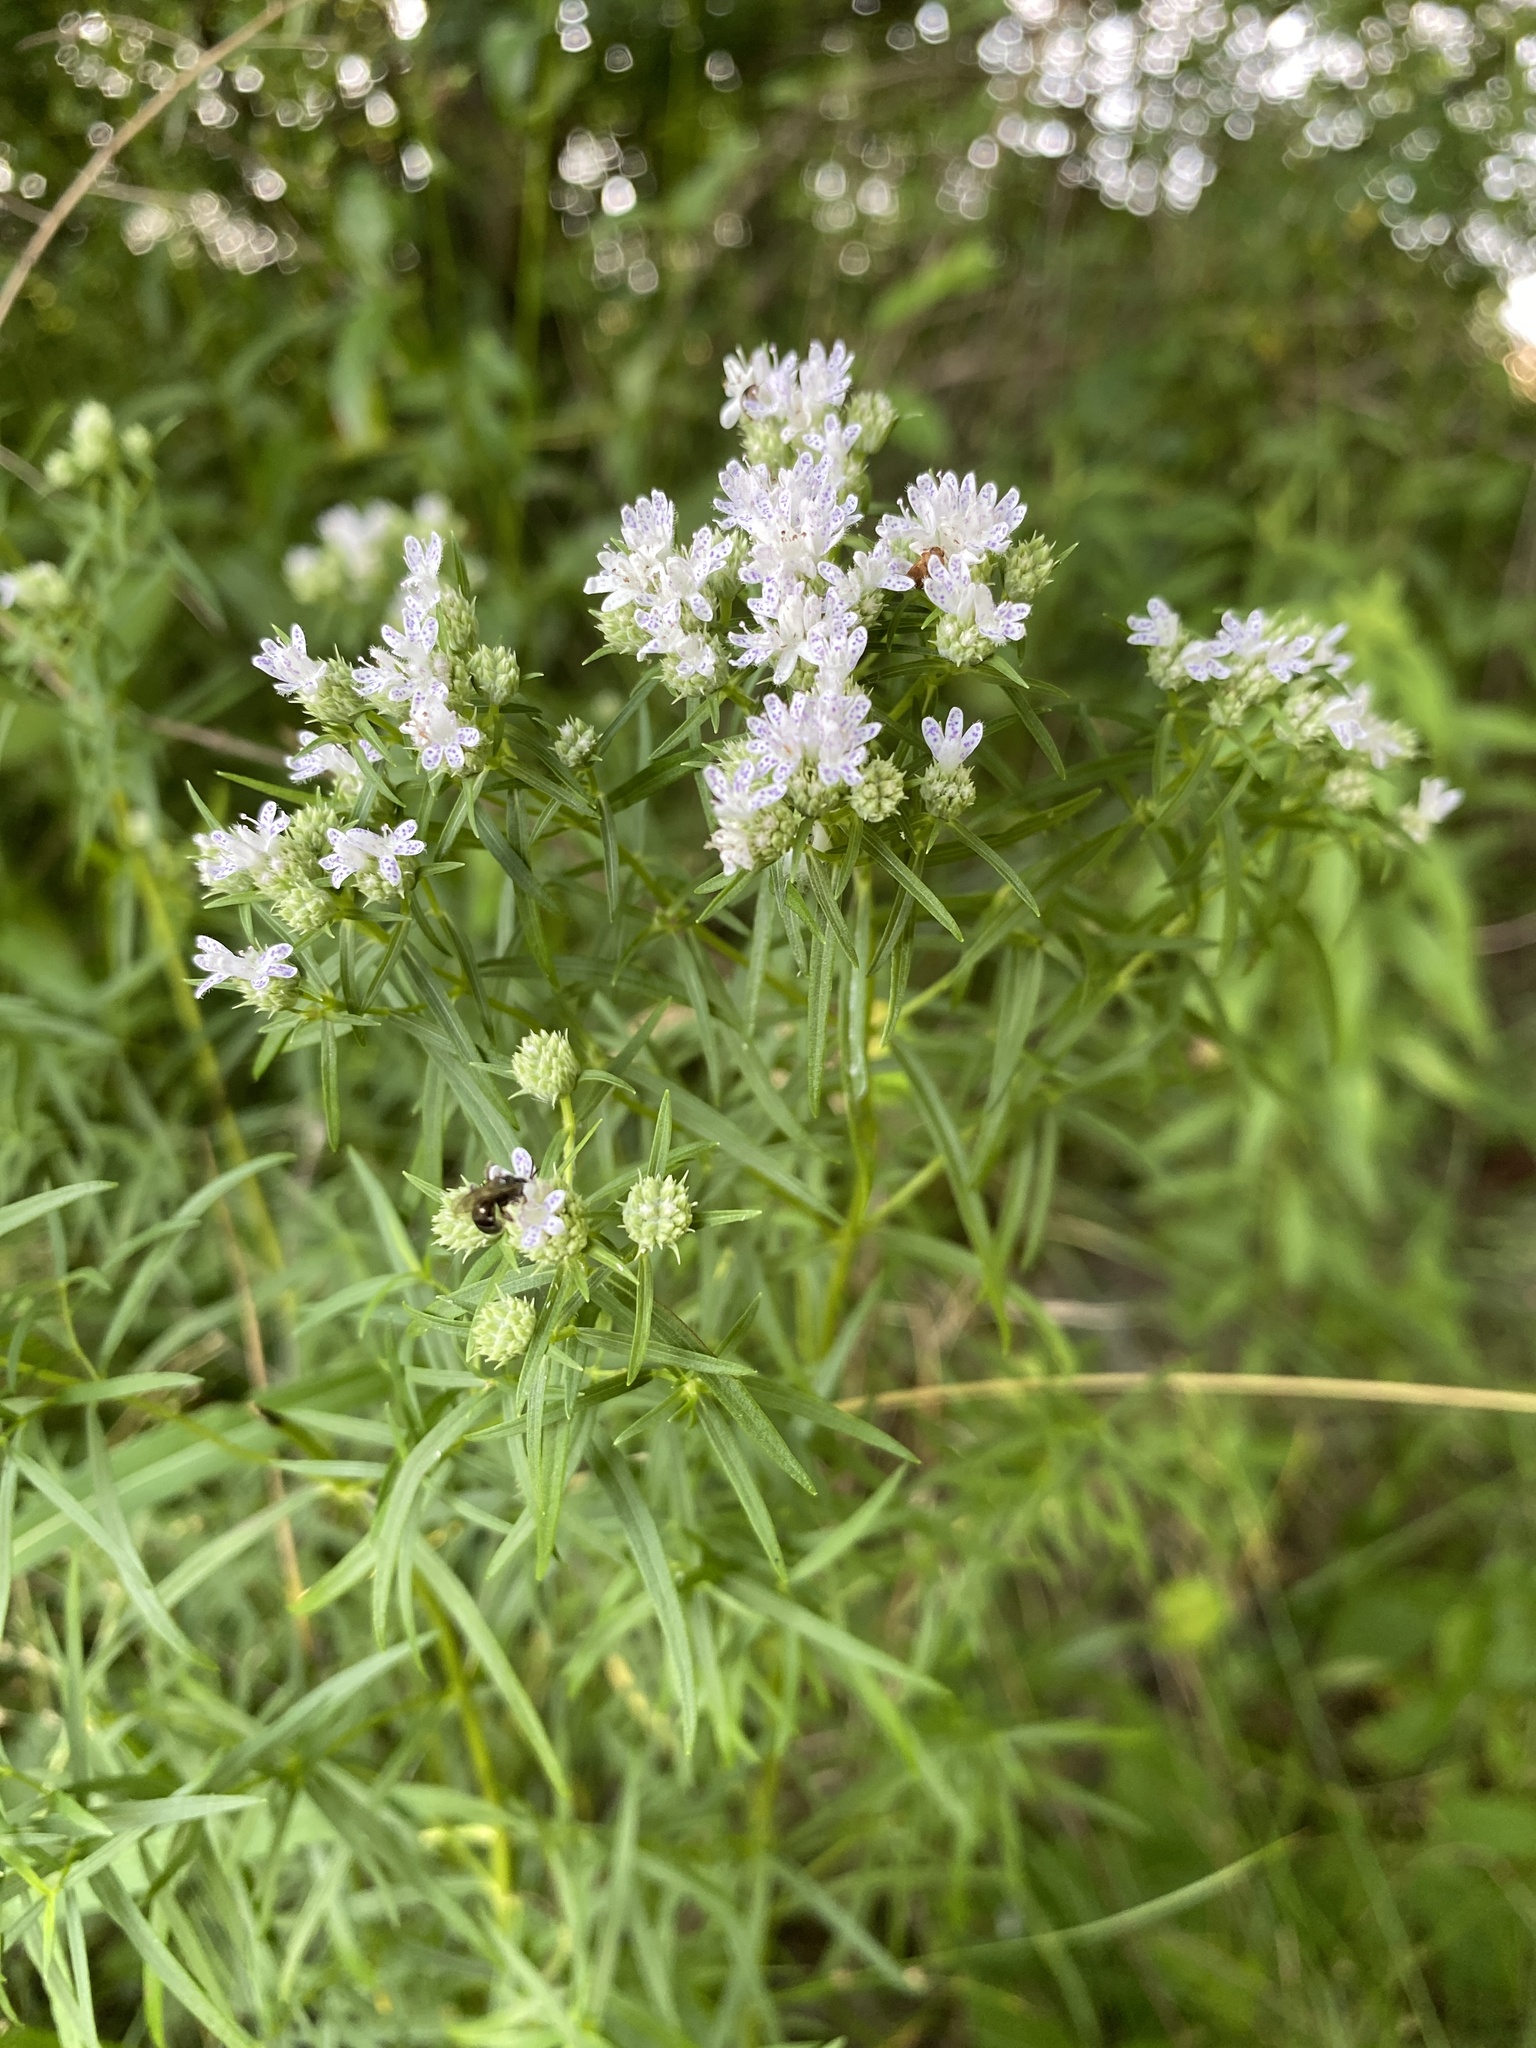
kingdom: Plantae
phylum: Tracheophyta
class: Magnoliopsida
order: Lamiales
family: Lamiaceae
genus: Pycnanthemum
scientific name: Pycnanthemum tenuifolium
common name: Narrow-leaf mountain-mint
